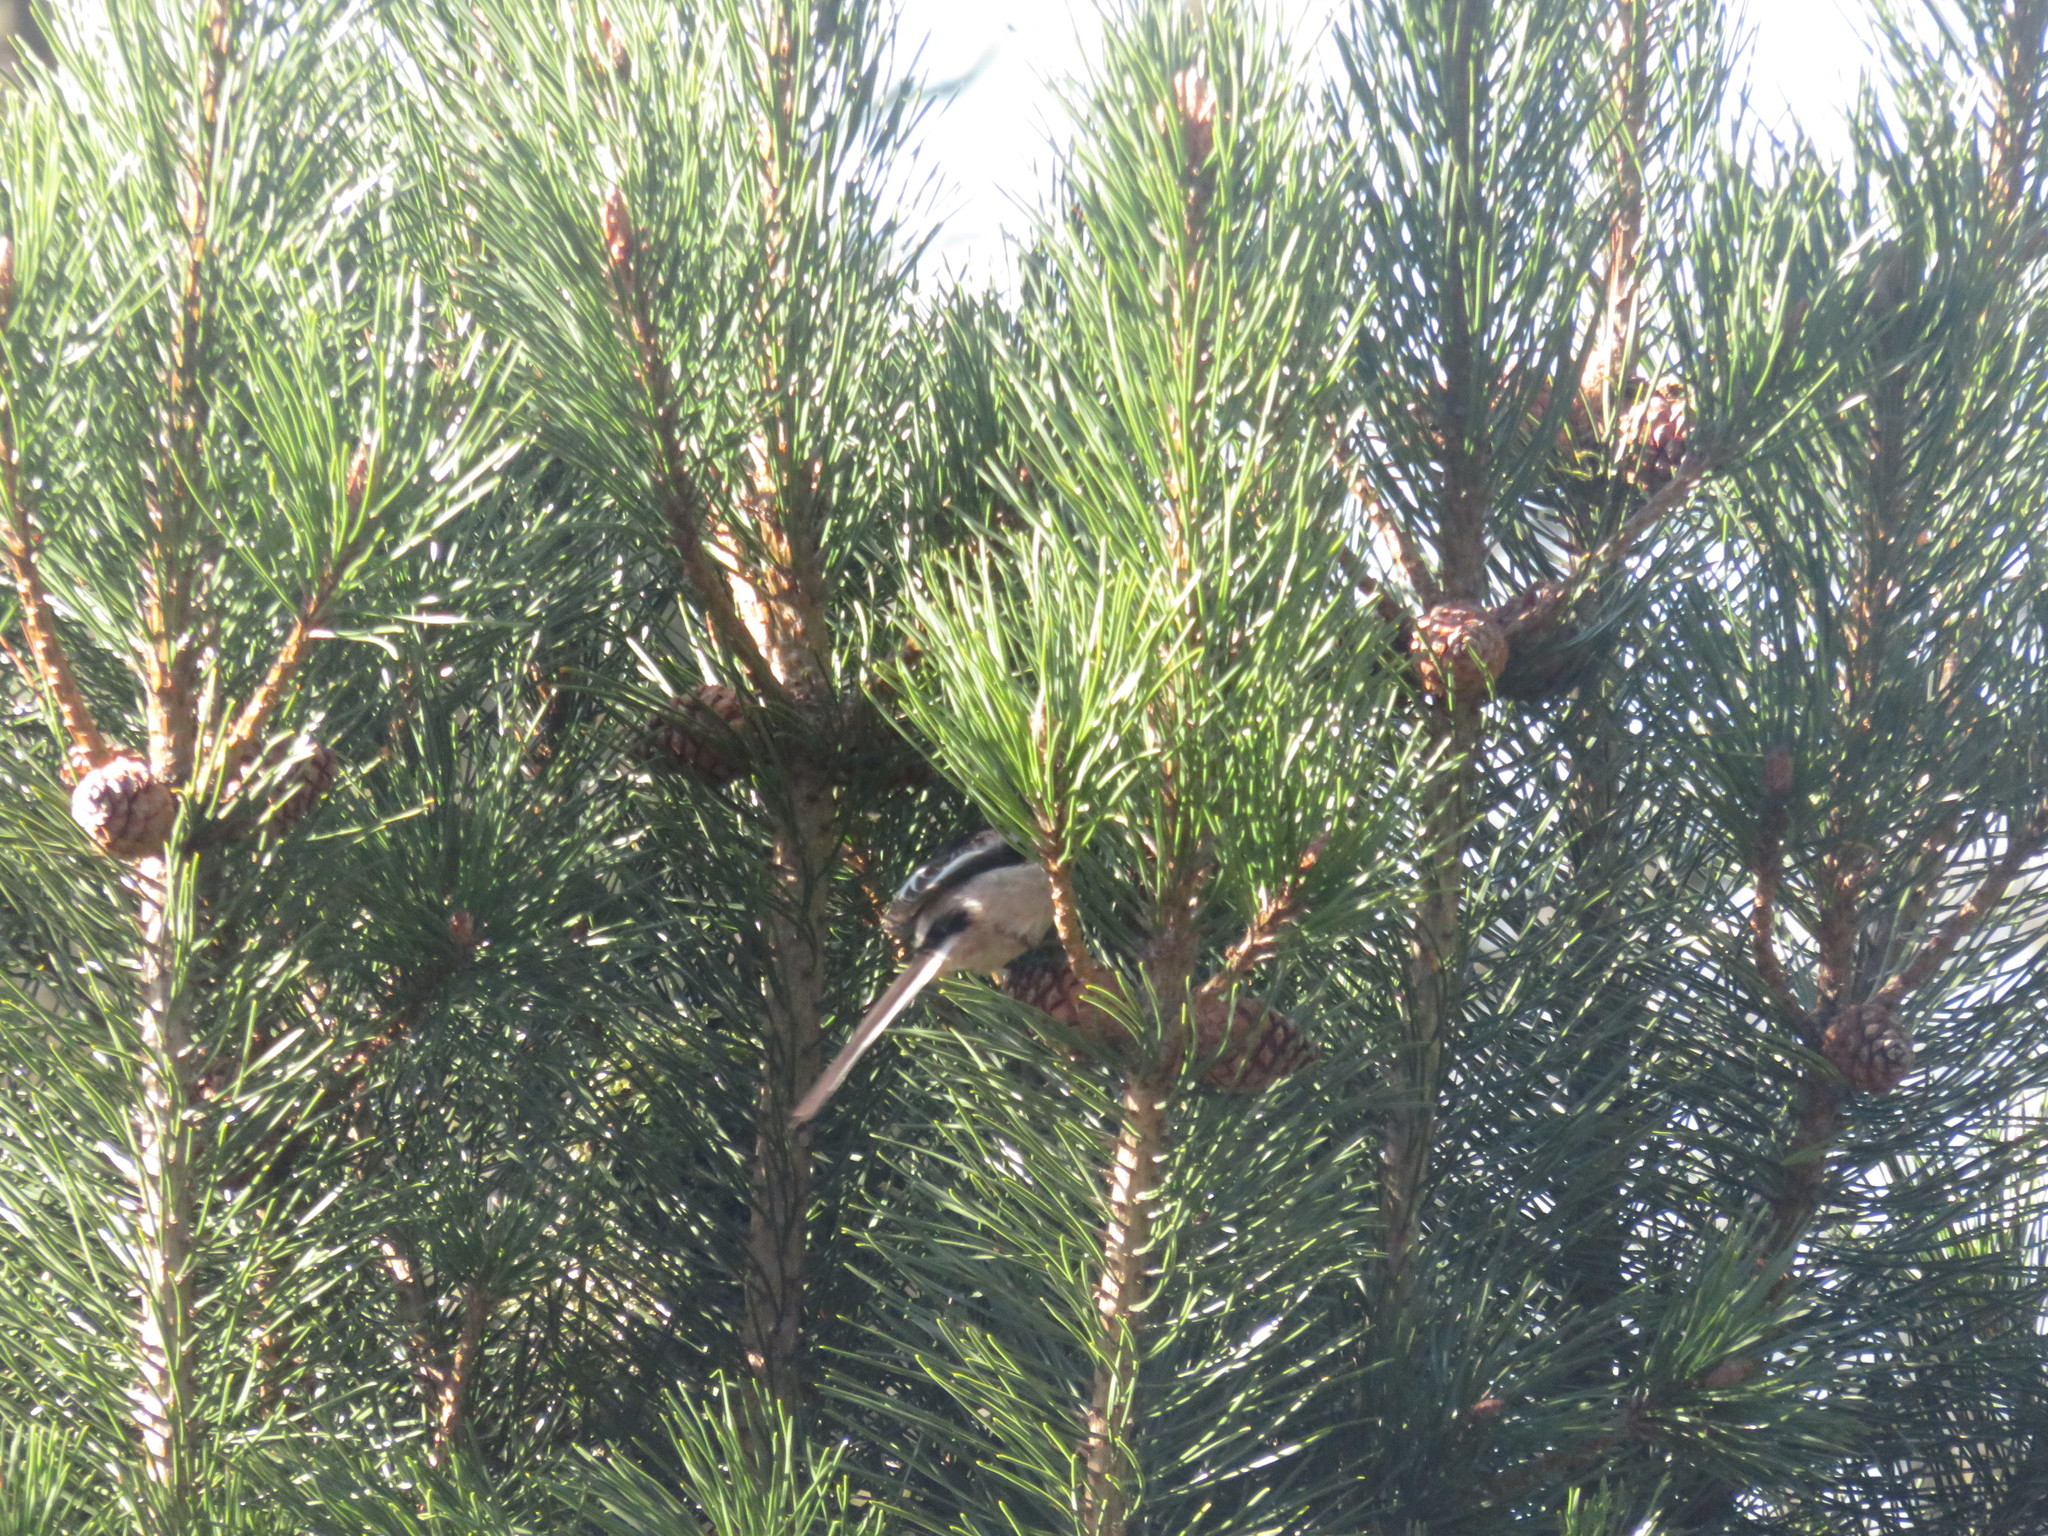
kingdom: Animalia
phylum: Chordata
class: Aves
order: Passeriformes
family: Aegithalidae
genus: Aegithalos
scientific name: Aegithalos caudatus
